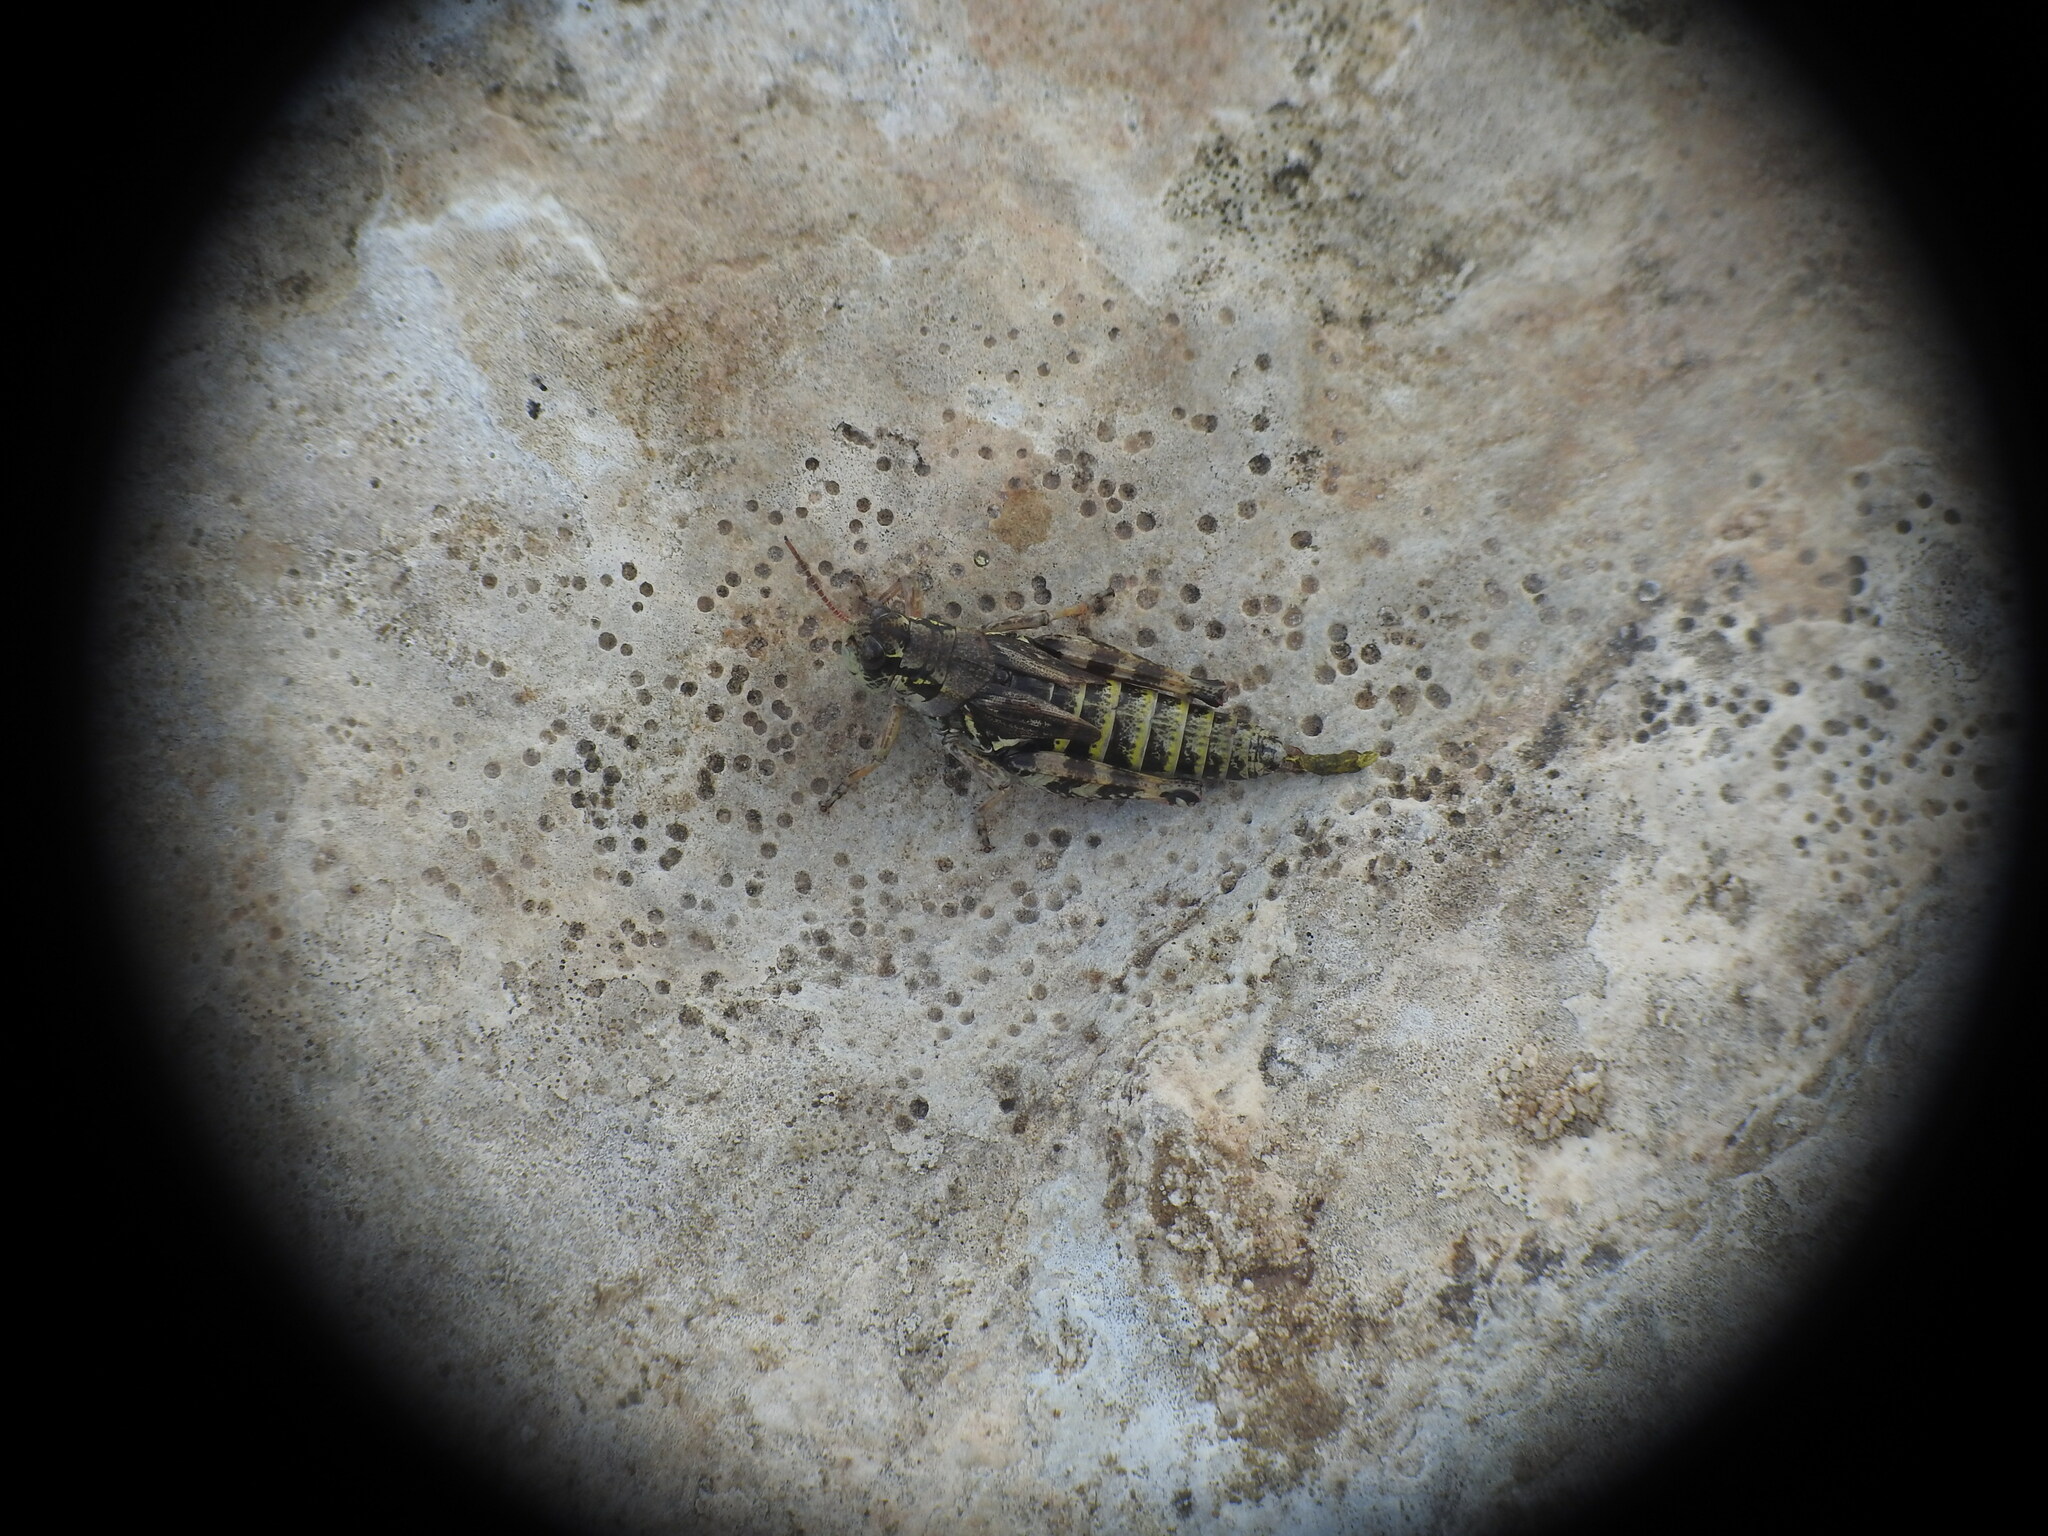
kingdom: Animalia
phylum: Arthropoda
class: Insecta
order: Orthoptera
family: Acrididae
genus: Bohemanella
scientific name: Bohemanella frigida
